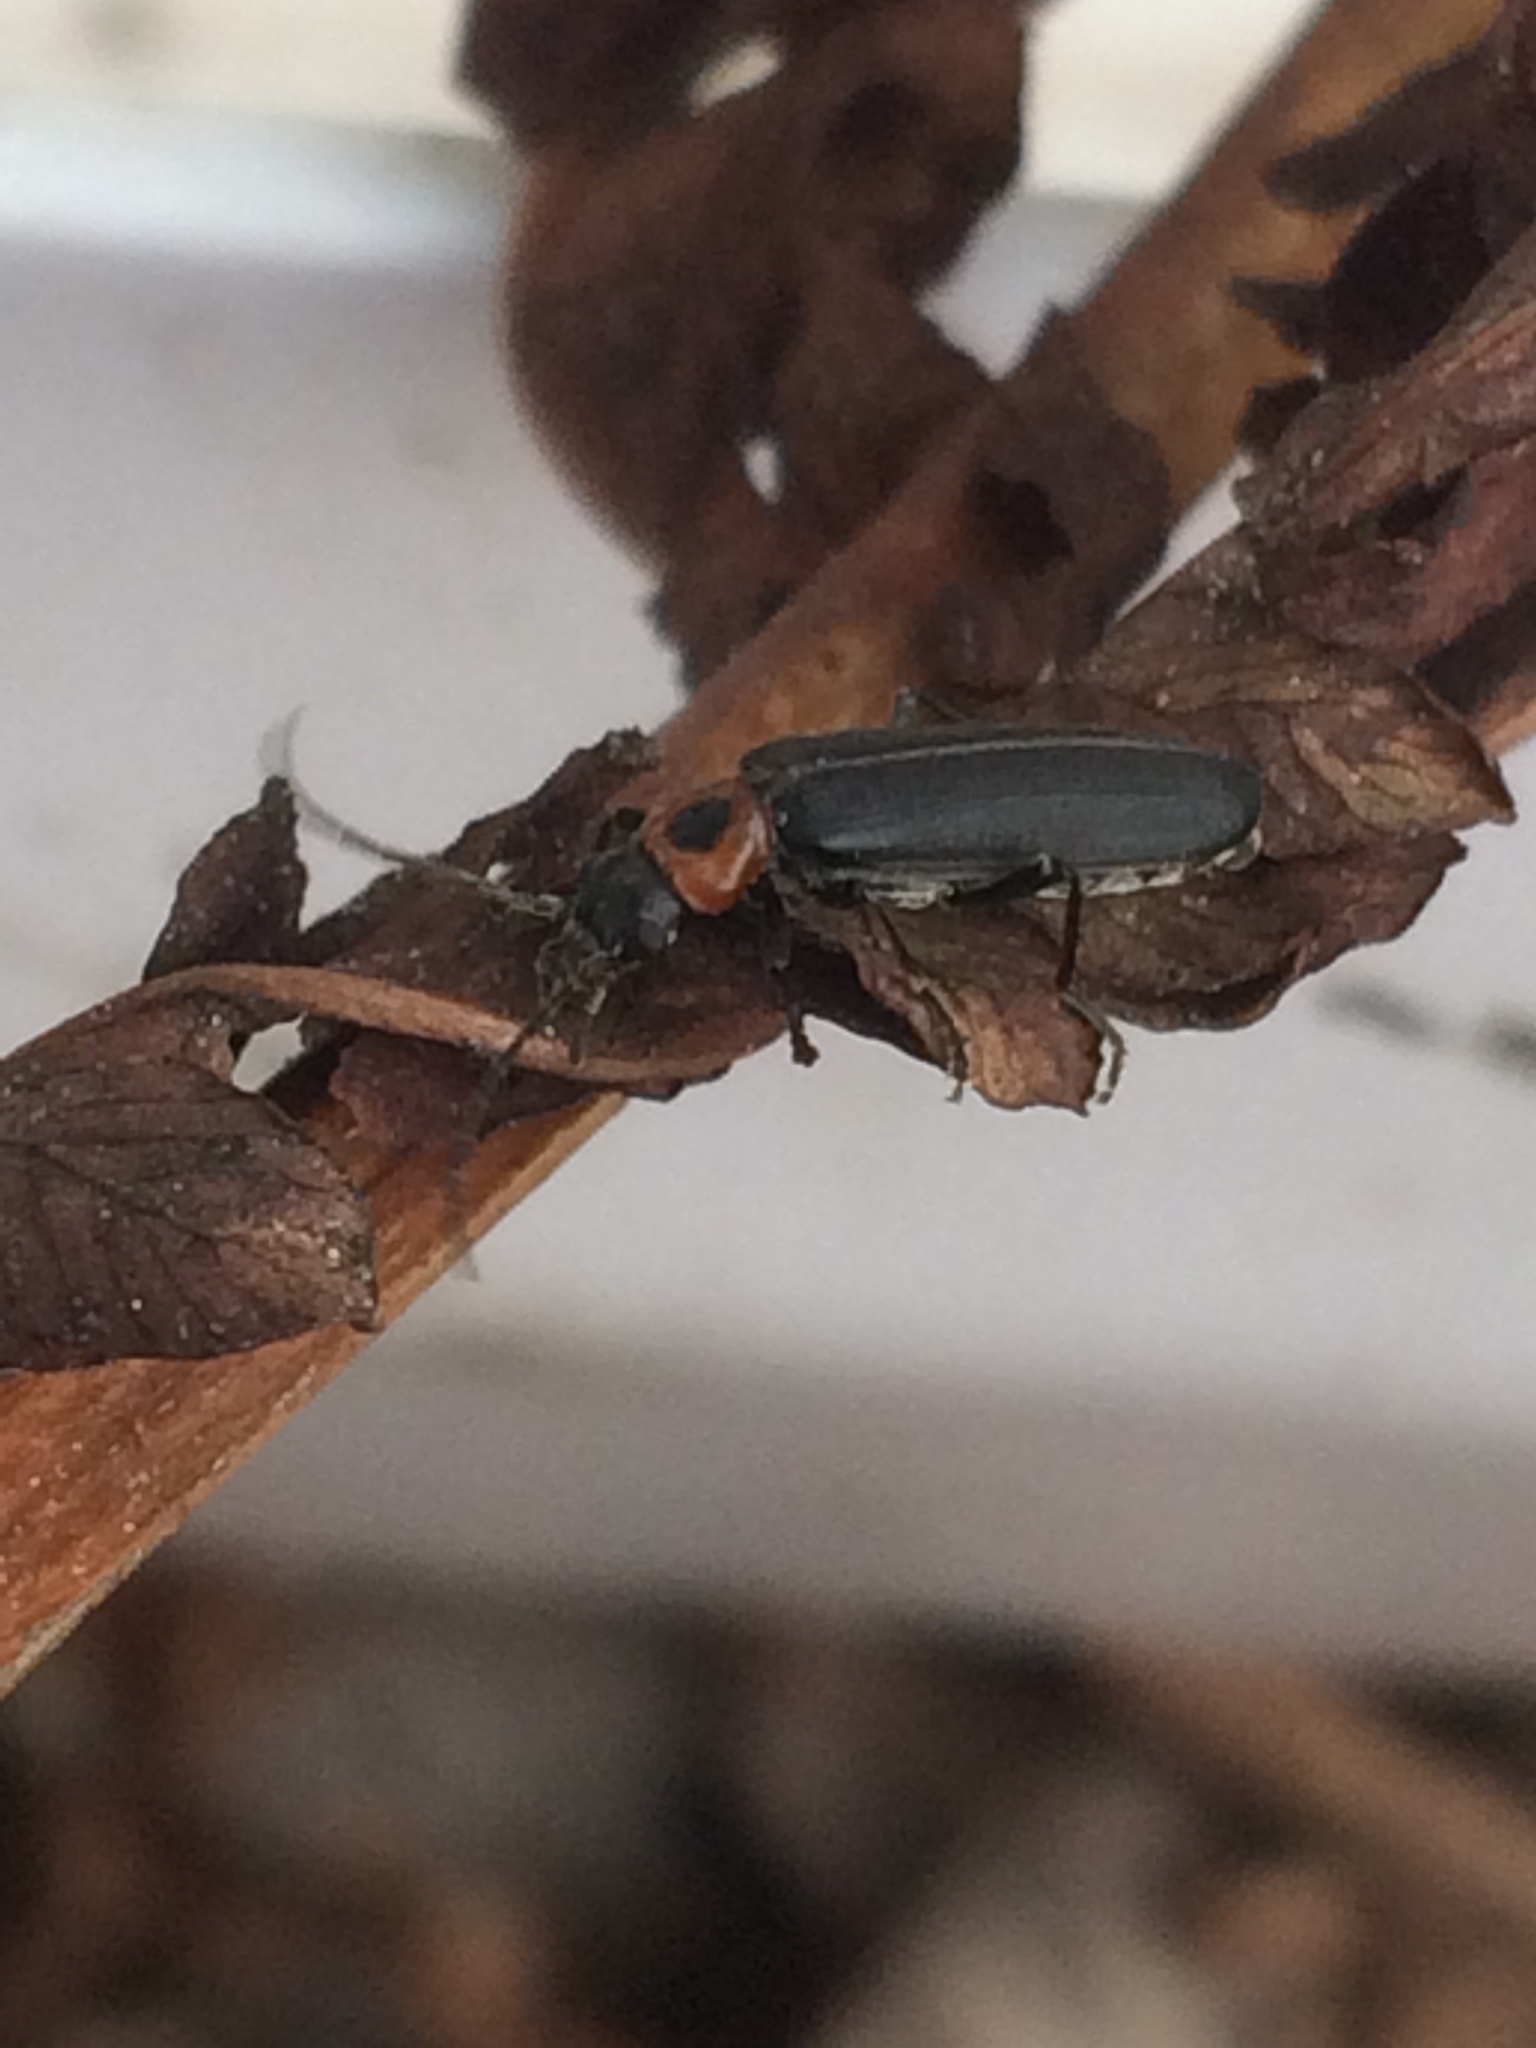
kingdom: Animalia
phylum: Arthropoda
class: Insecta
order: Coleoptera
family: Oedemeridae
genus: Ischnomera
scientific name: Ischnomera
